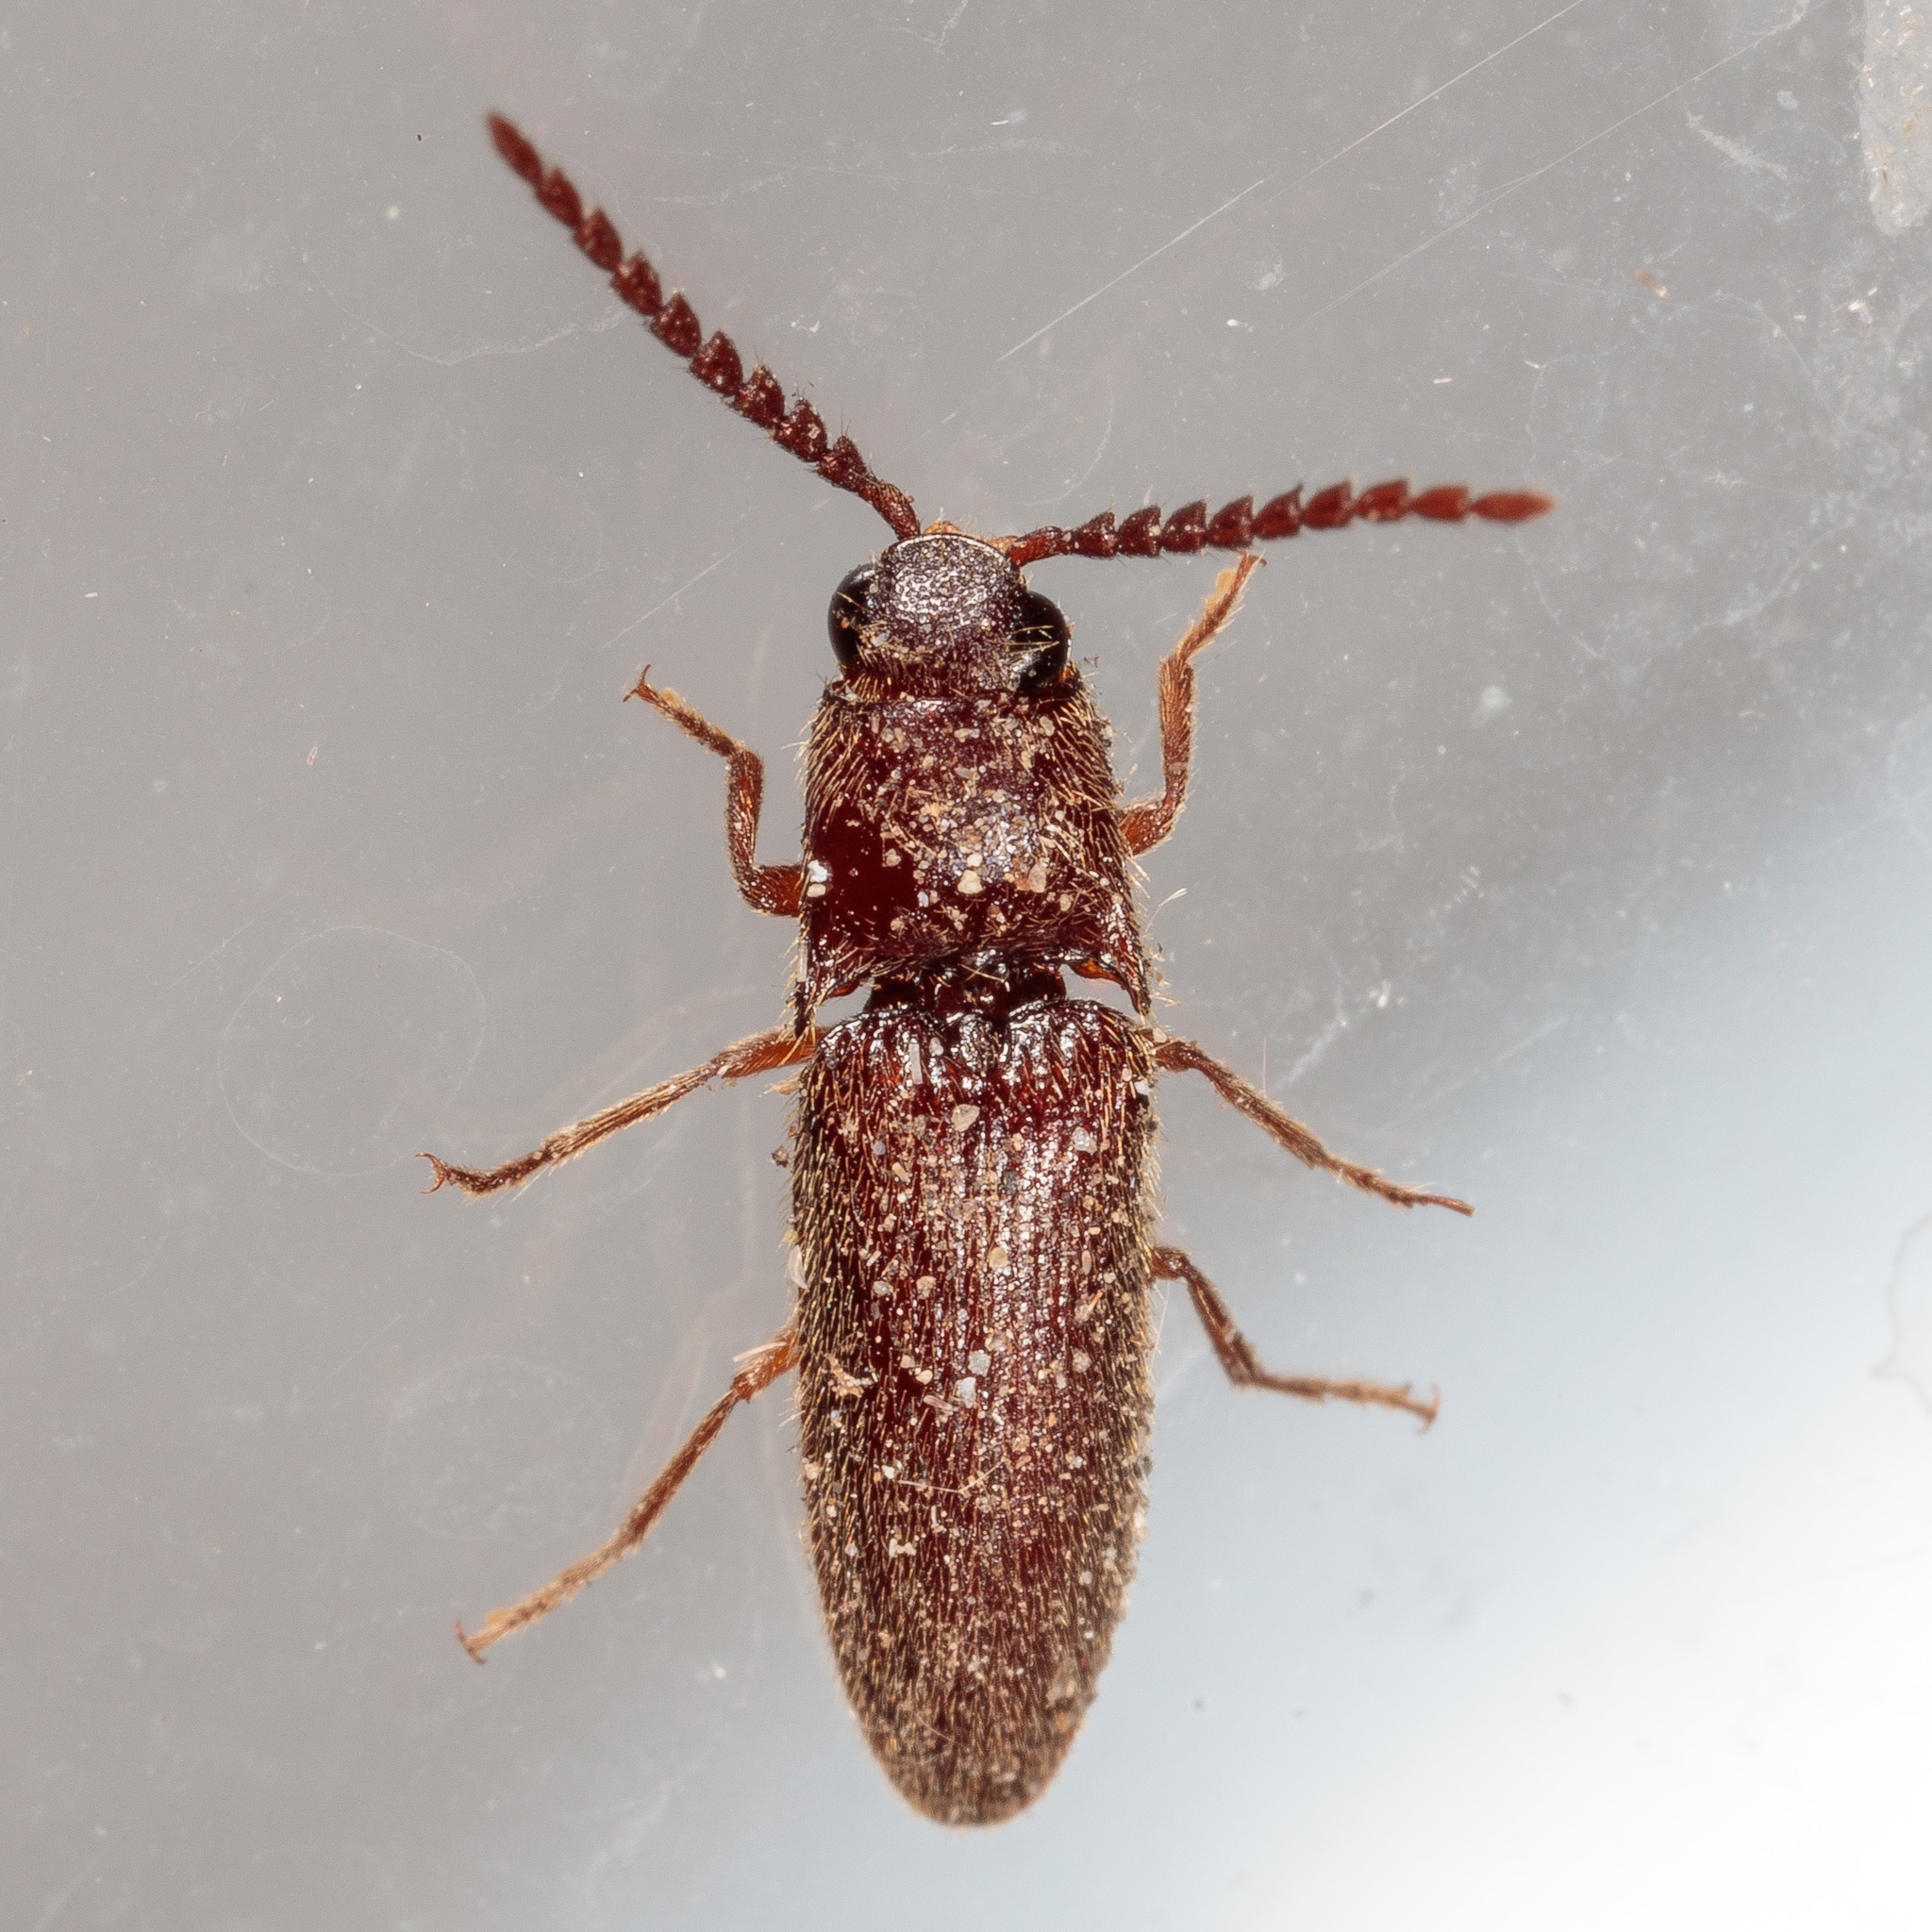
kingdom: Animalia
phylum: Arthropoda
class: Insecta
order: Coleoptera
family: Elateridae
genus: Dipropus
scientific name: Dipropus
